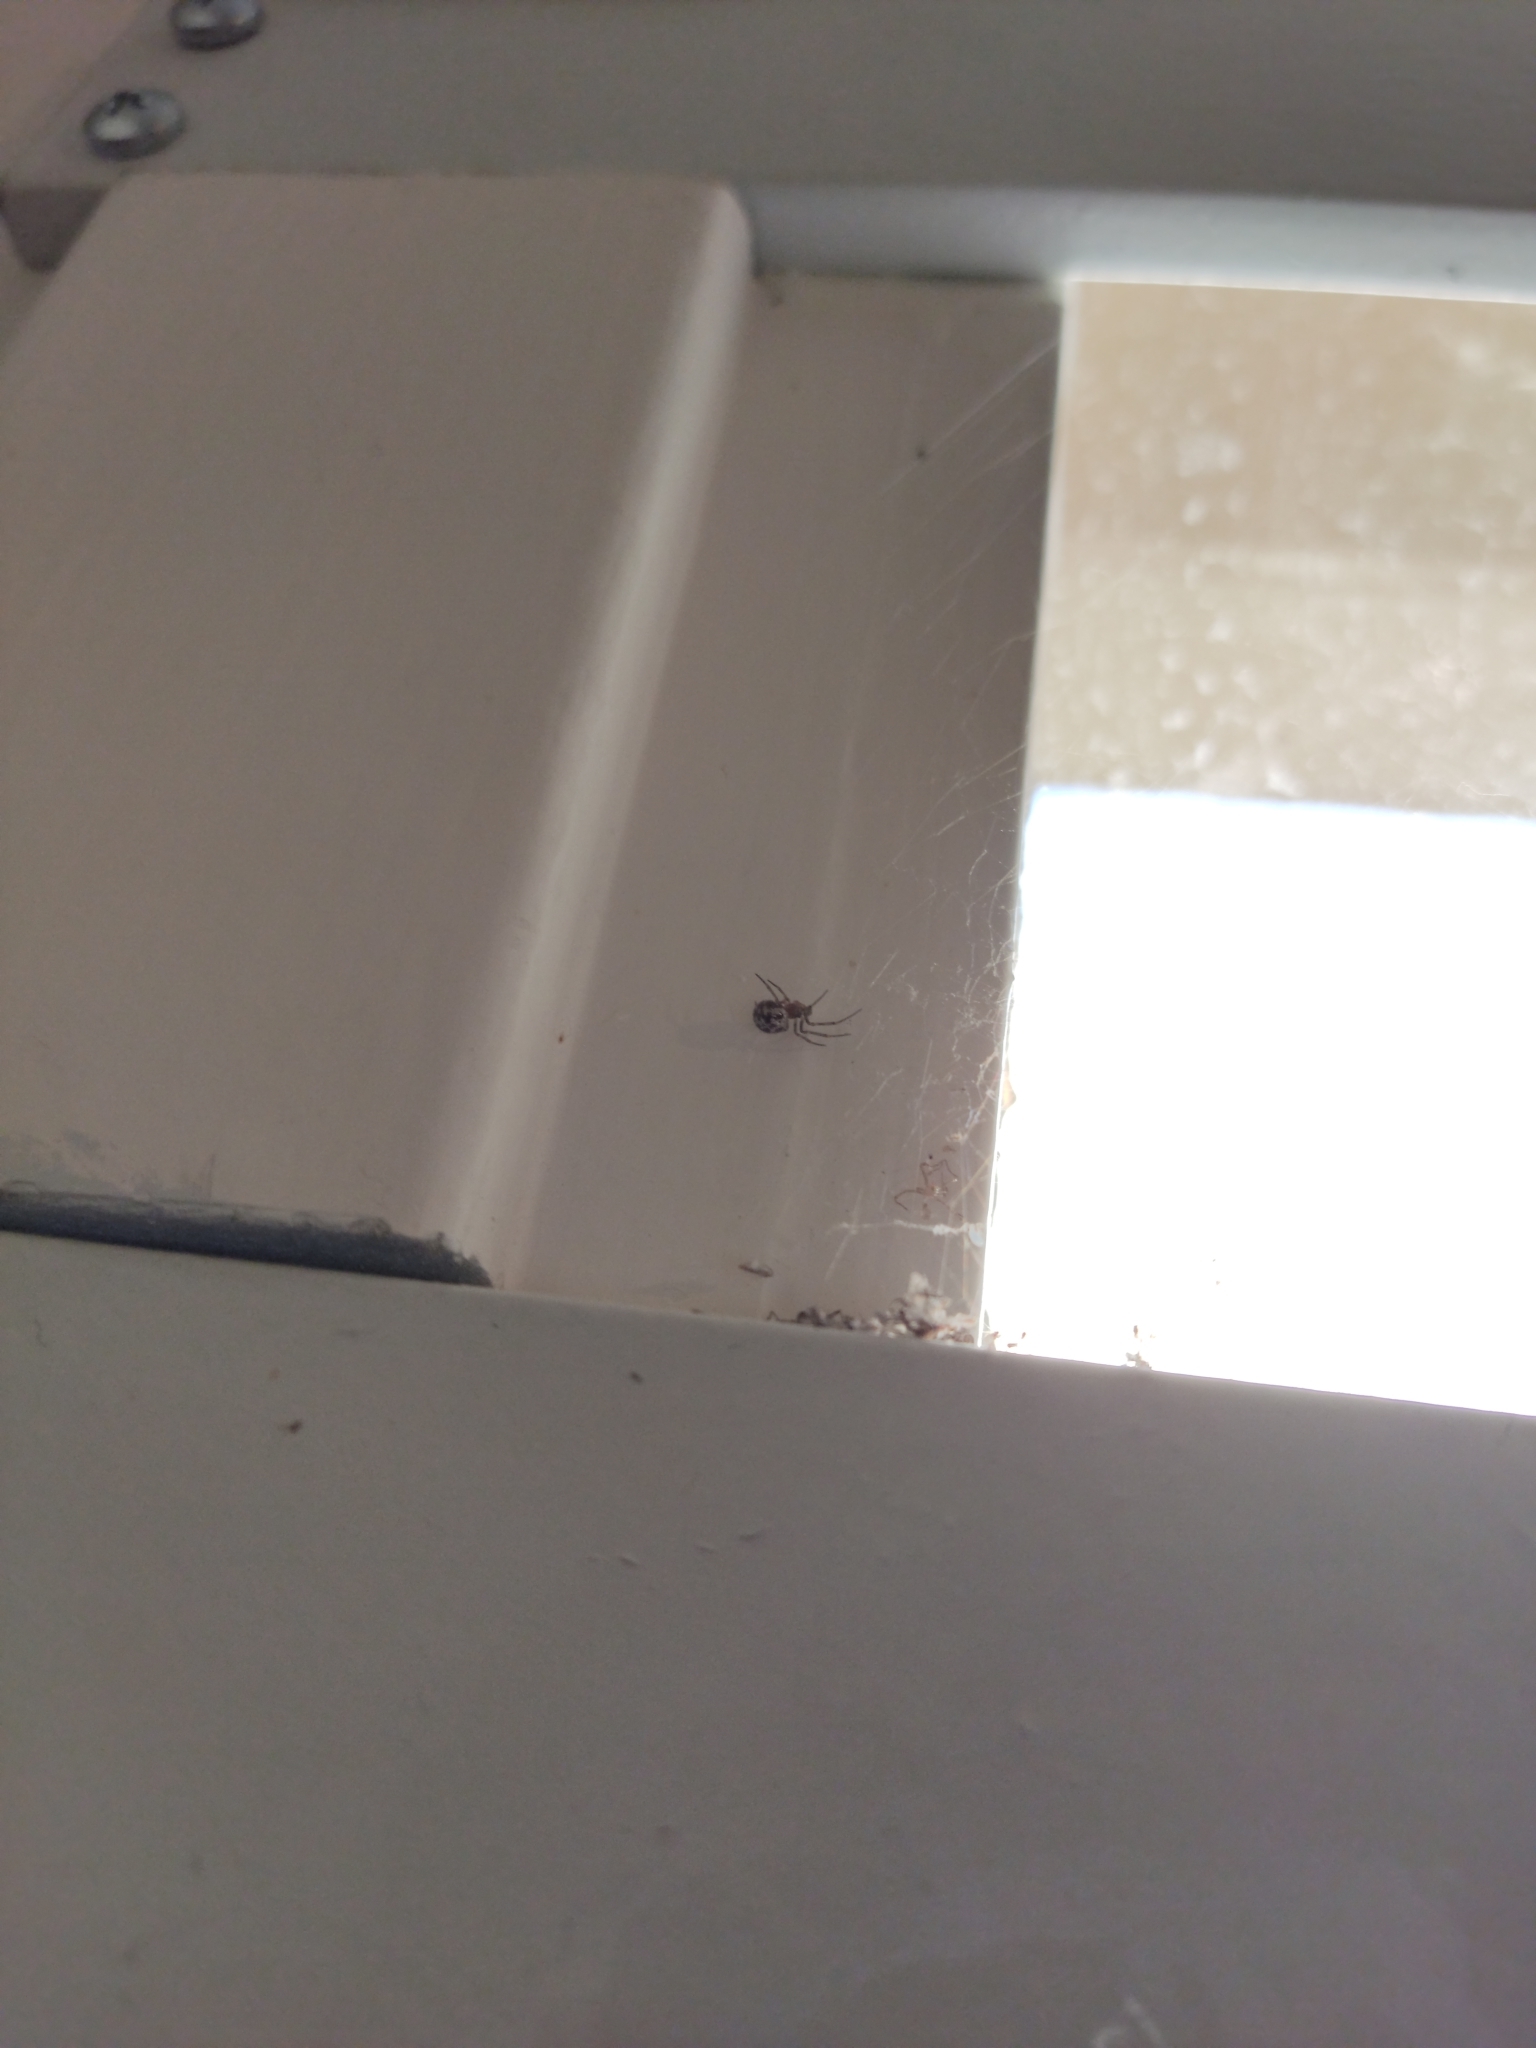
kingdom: Animalia
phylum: Arthropoda
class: Arachnida
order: Araneae
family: Theridiidae
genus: Steatoda
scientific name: Steatoda triangulosa
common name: Triangulate bud spider
